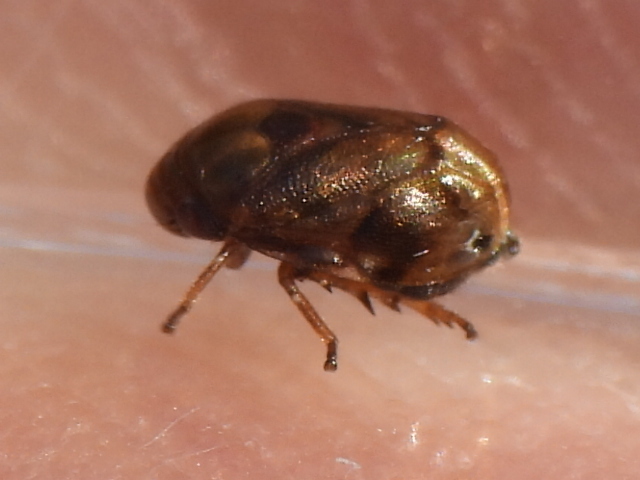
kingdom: Animalia
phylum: Arthropoda
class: Insecta
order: Hemiptera
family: Clastopteridae
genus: Clastoptera
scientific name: Clastoptera xanthocephala
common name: Sunflower spittlebug
